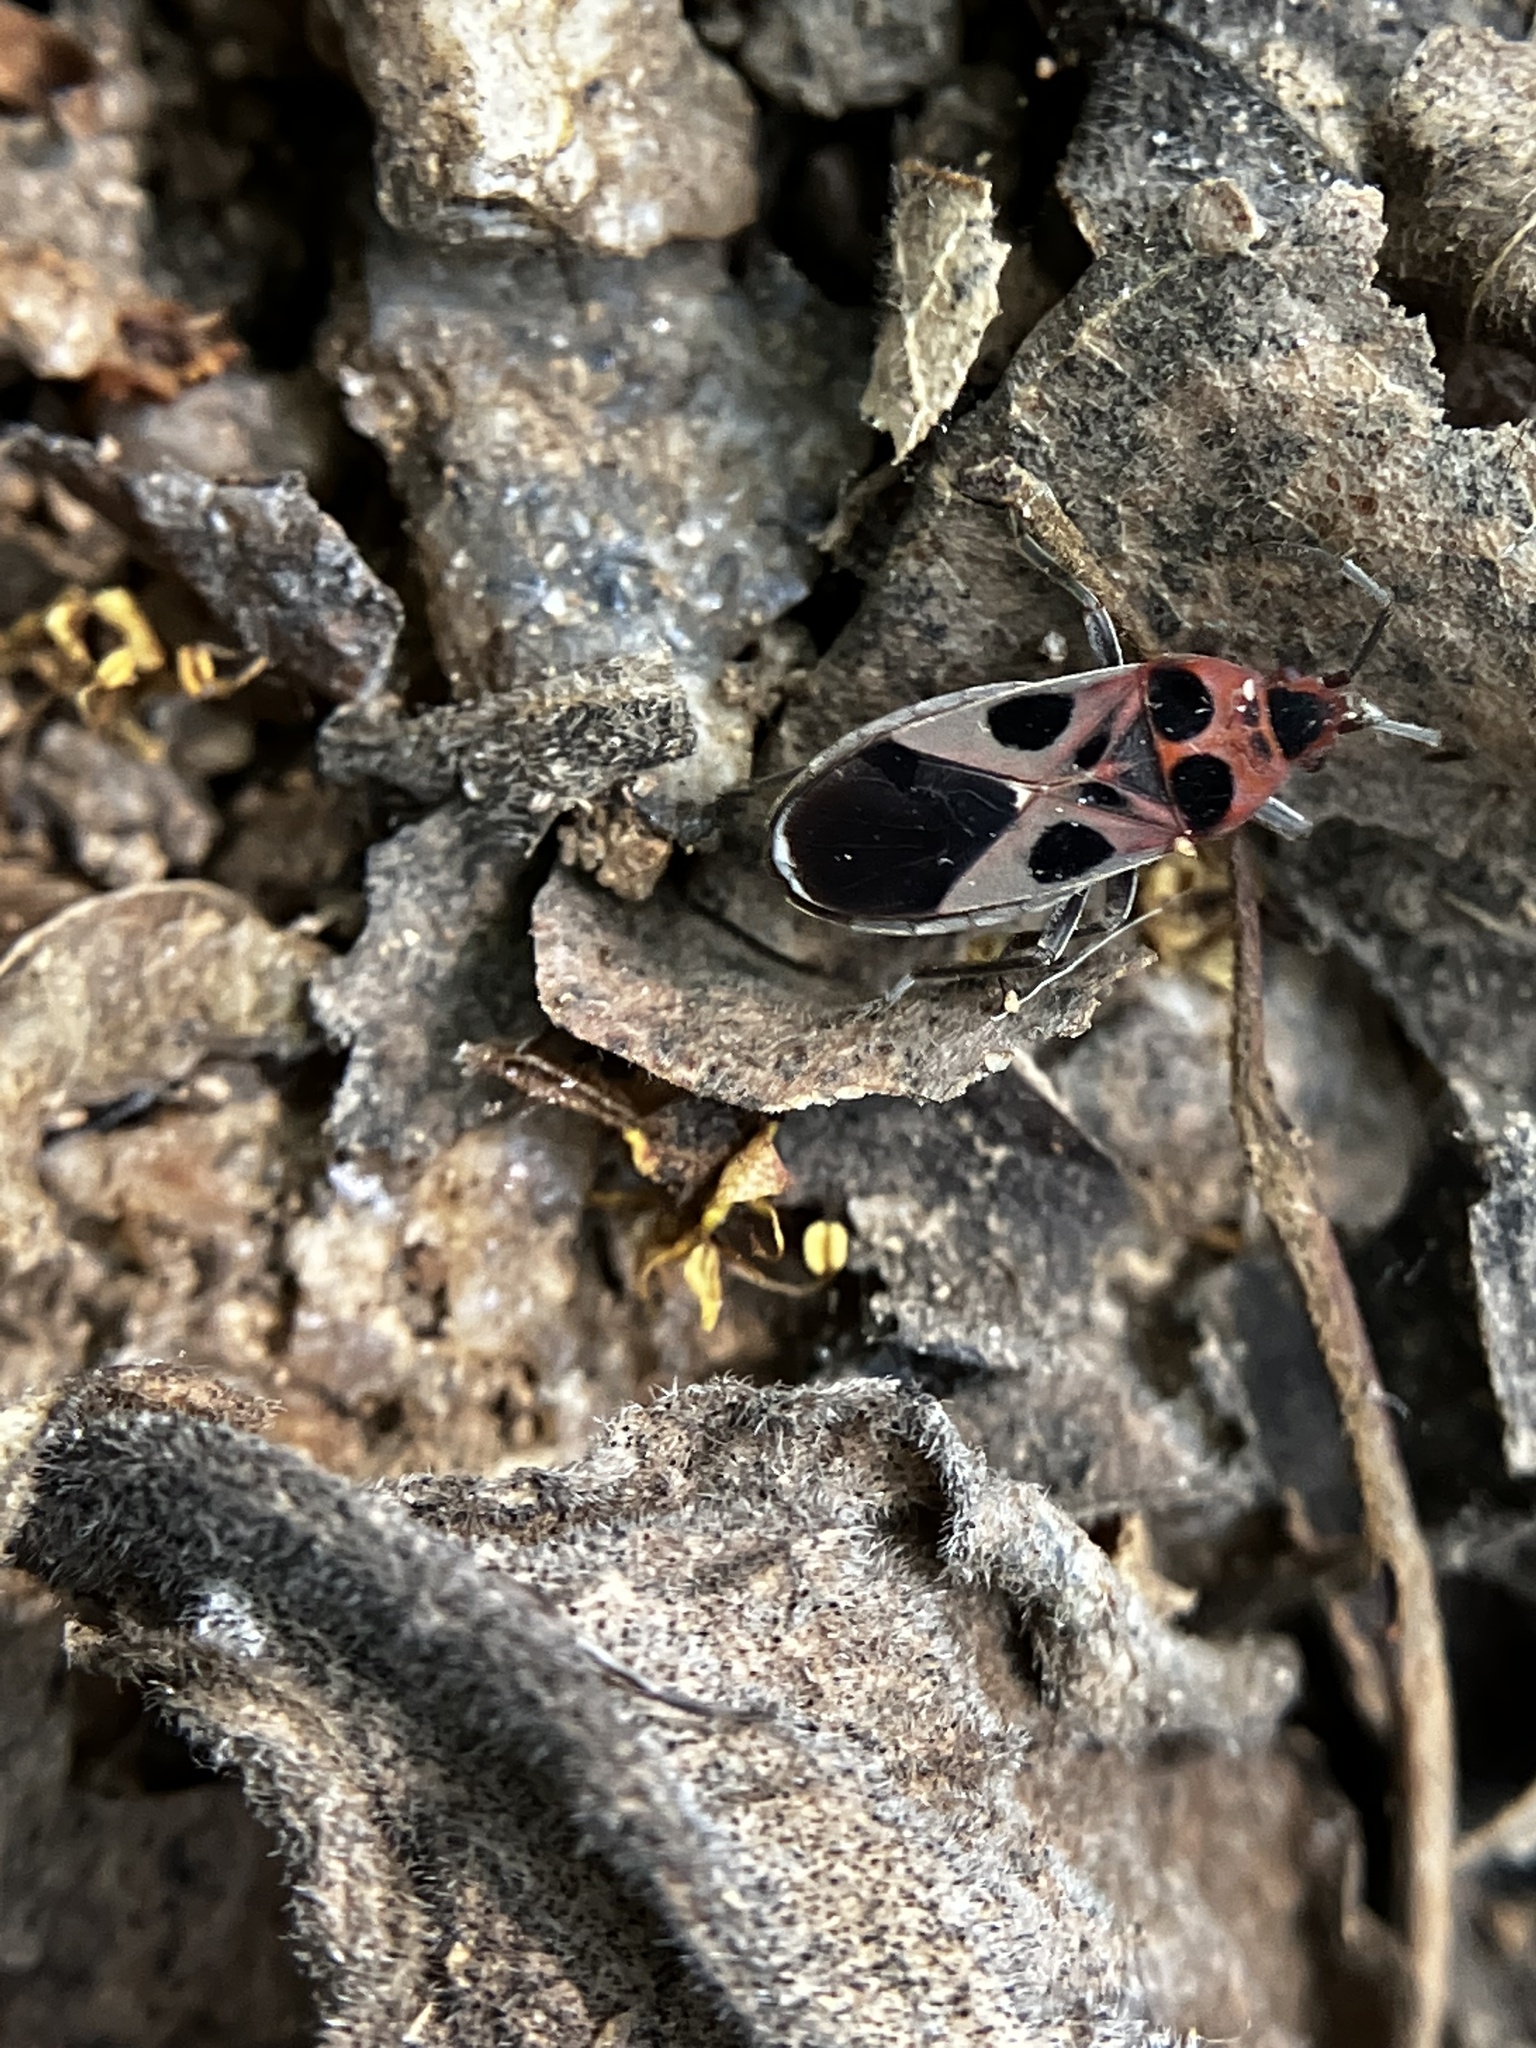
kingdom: Animalia
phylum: Arthropoda
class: Insecta
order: Hemiptera
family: Lygaeidae
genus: Tropidothorax
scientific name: Tropidothorax maculatus
